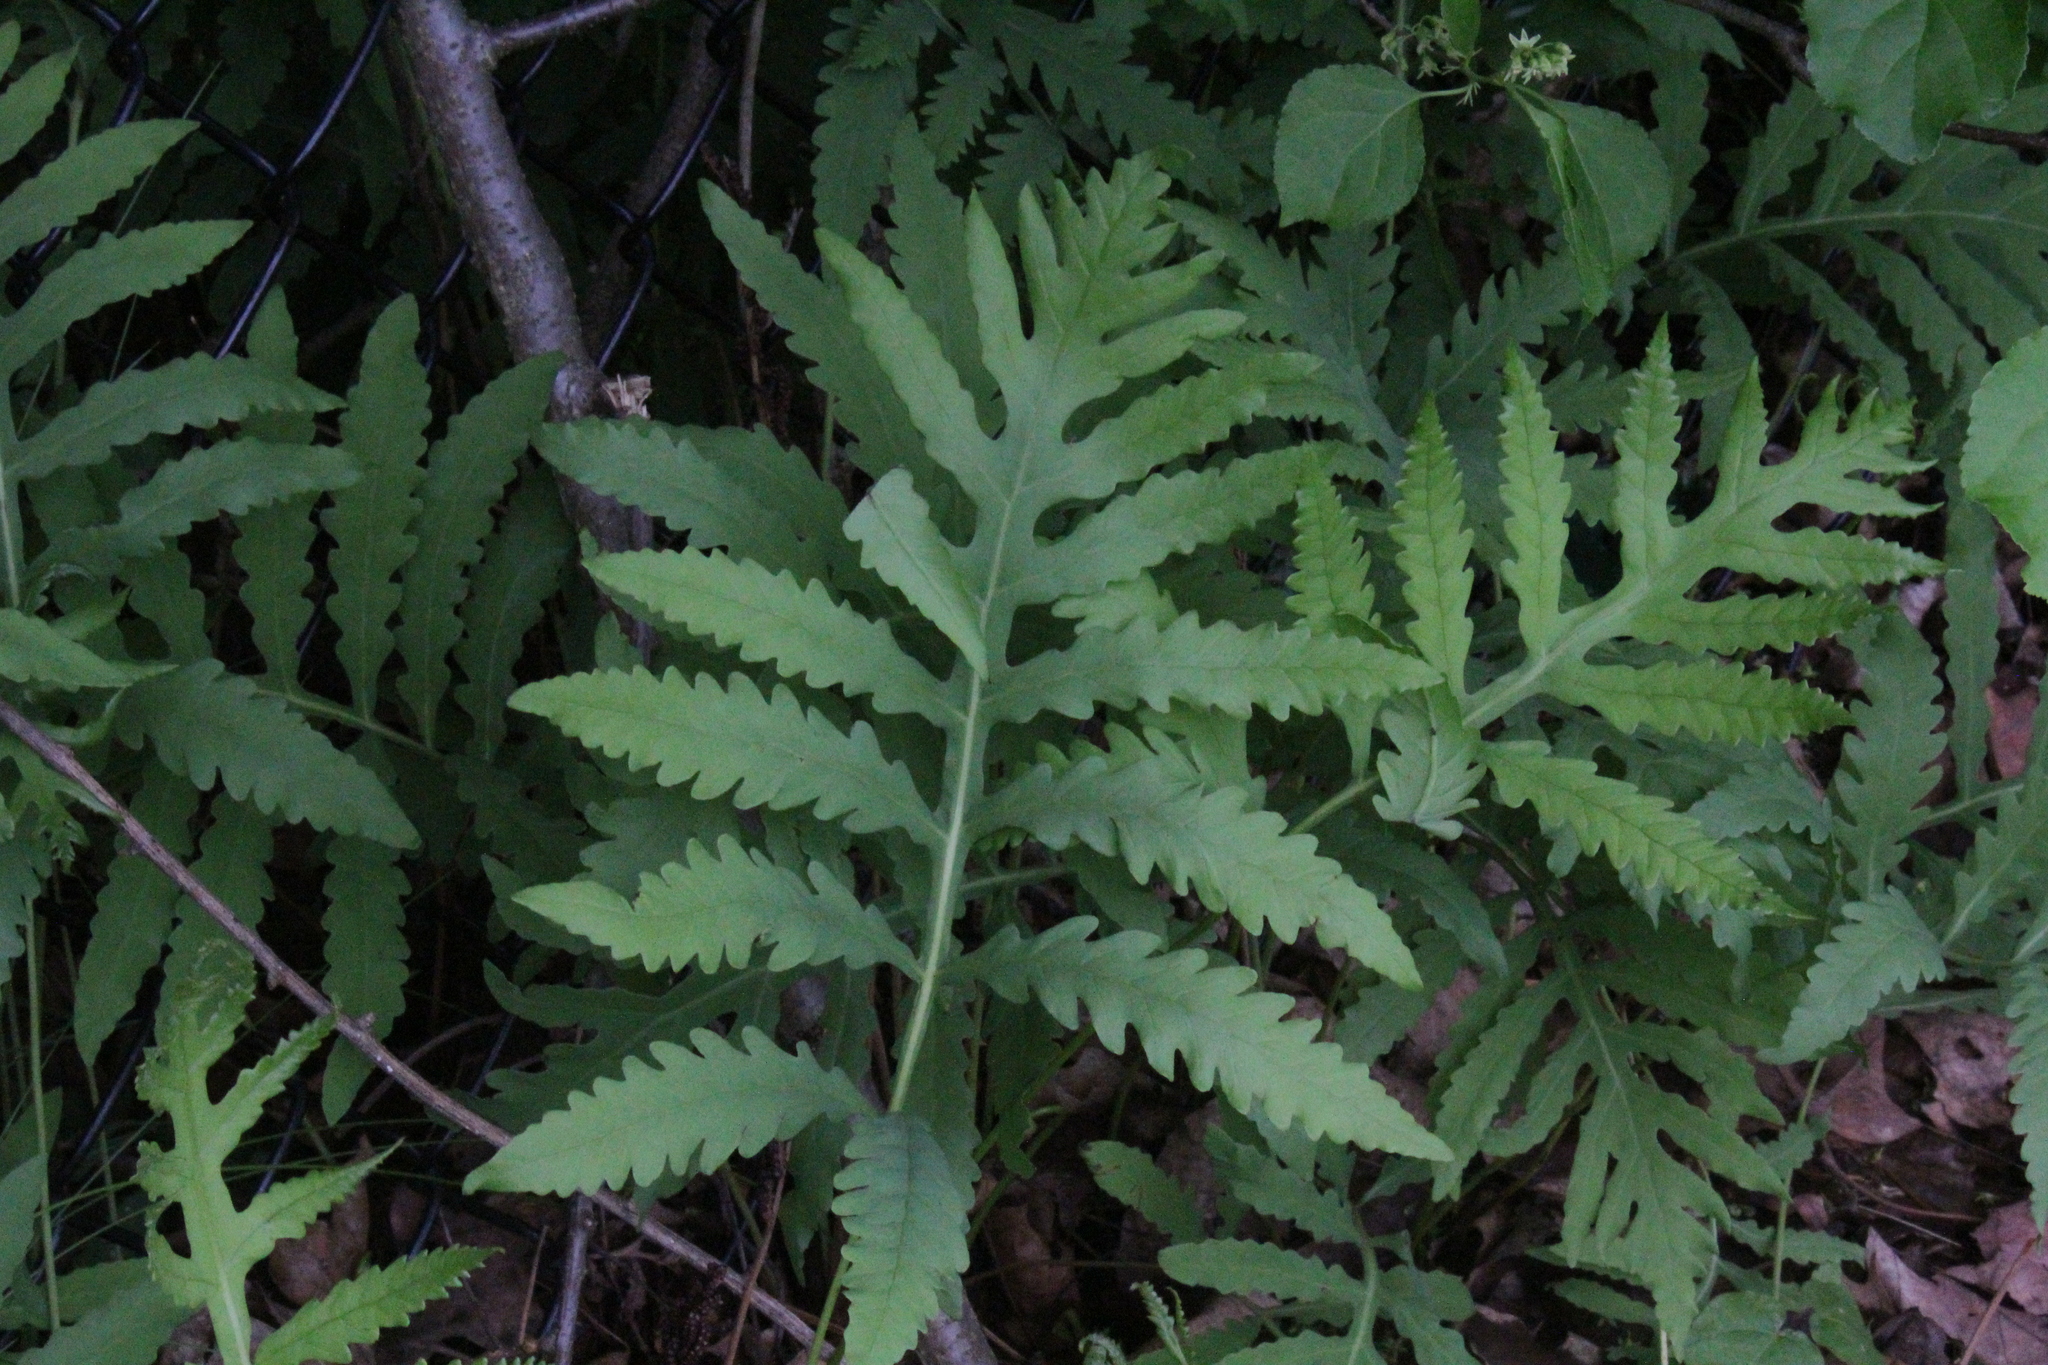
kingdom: Plantae
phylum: Tracheophyta
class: Polypodiopsida
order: Polypodiales
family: Onocleaceae
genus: Onoclea
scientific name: Onoclea sensibilis
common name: Sensitive fern
